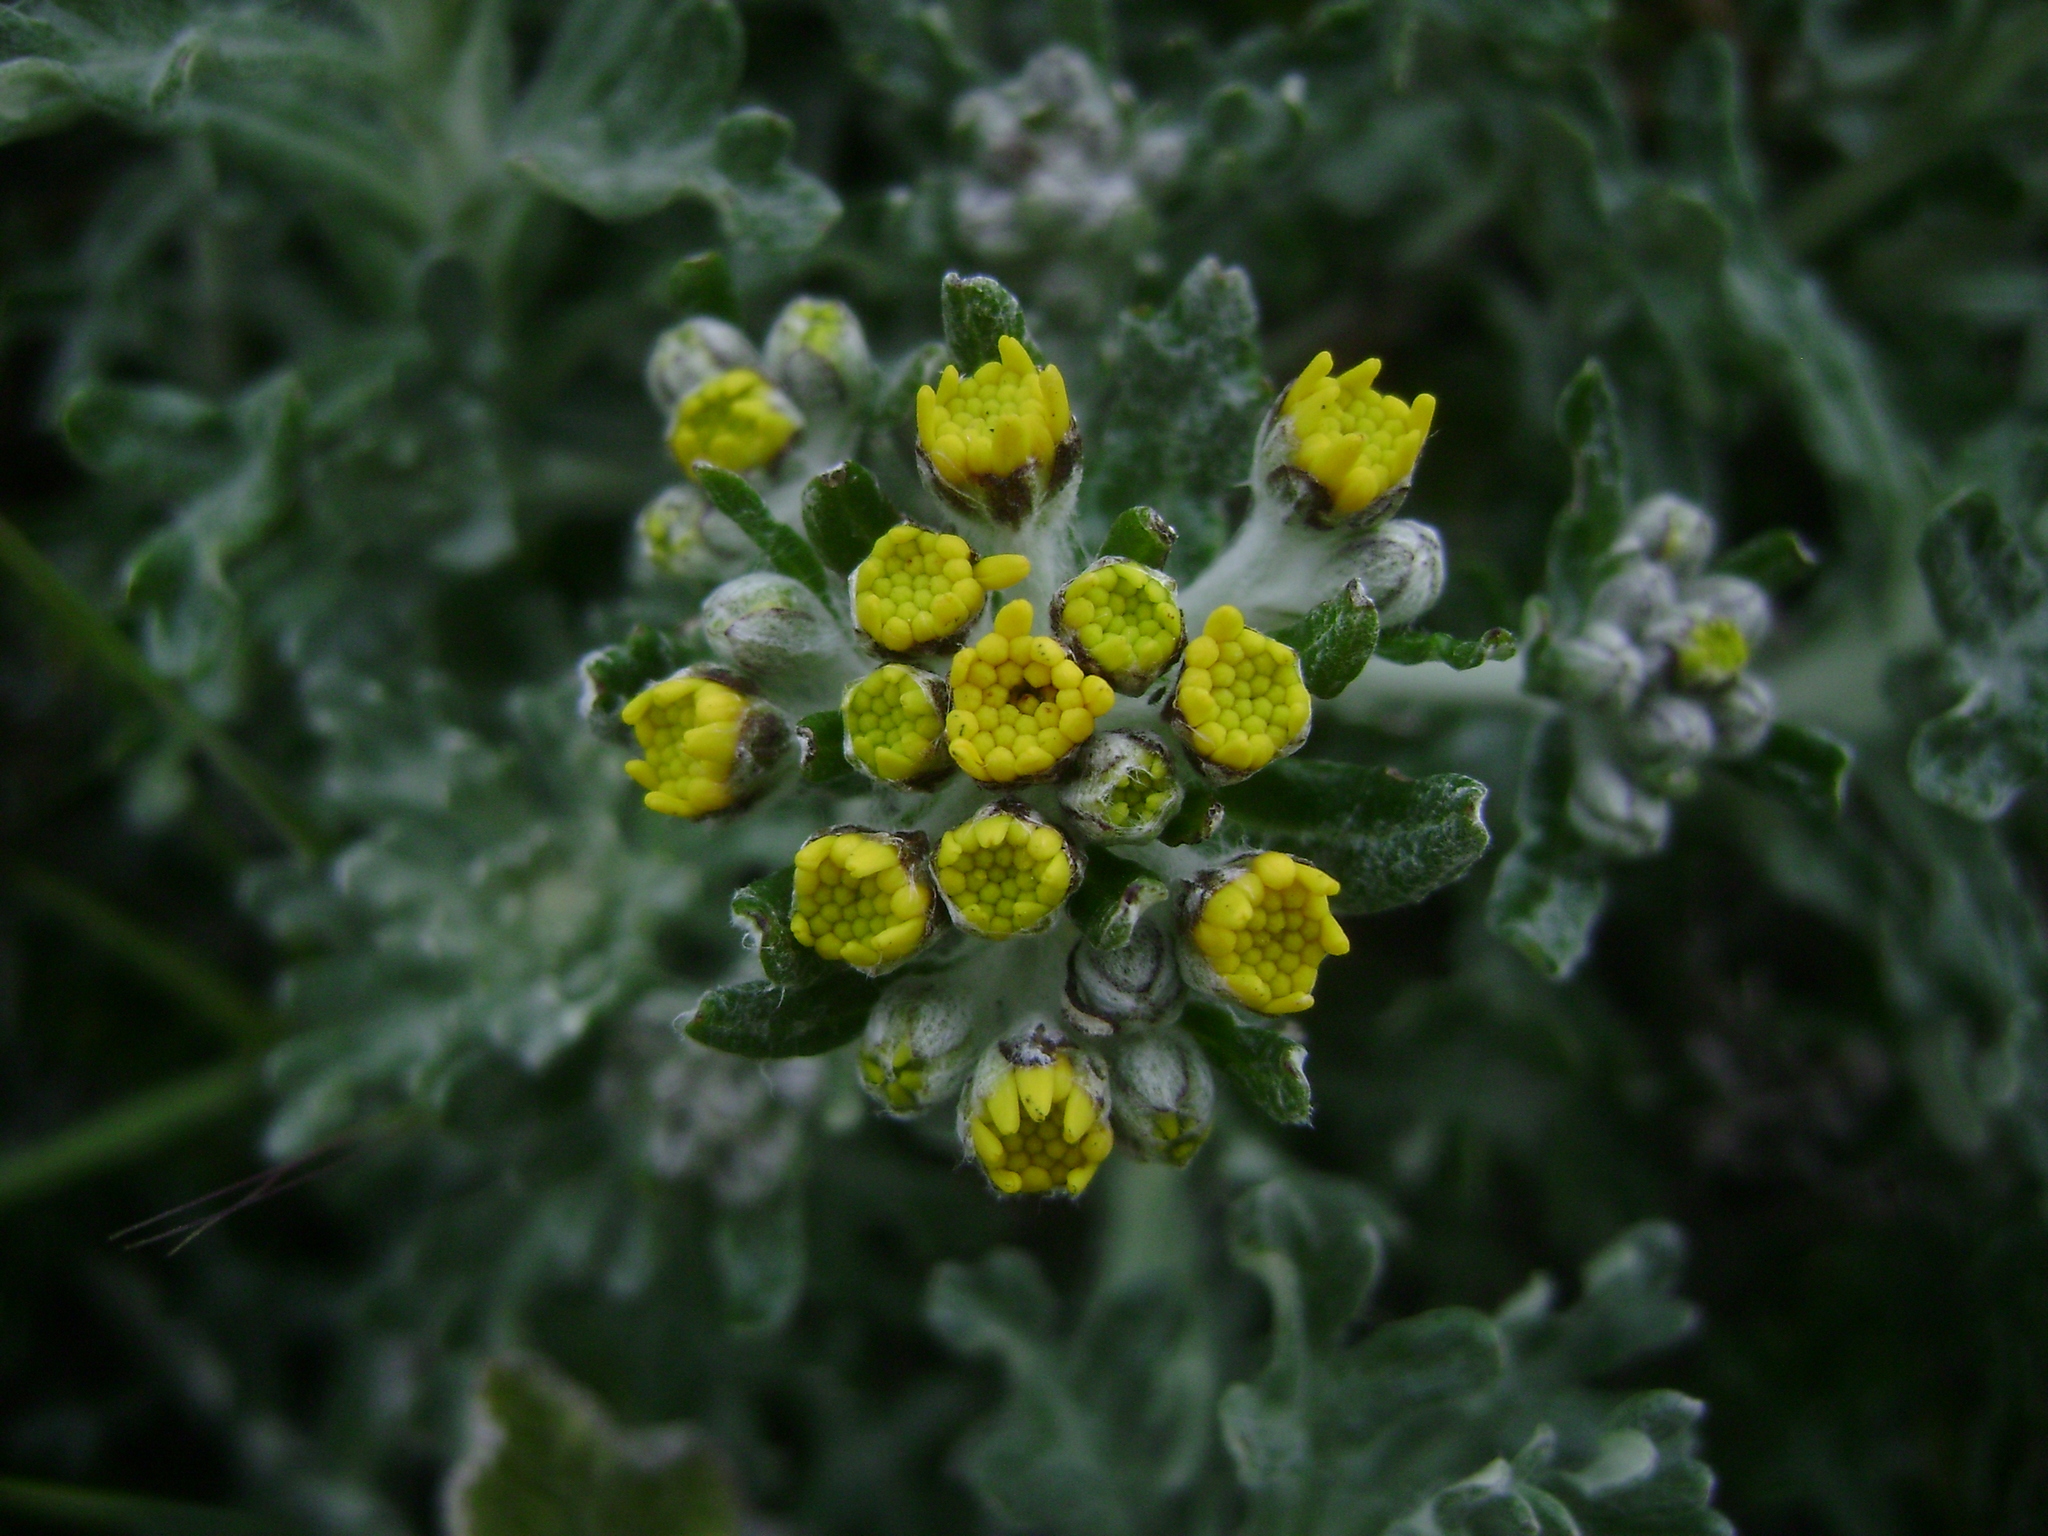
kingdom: Plantae
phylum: Tracheophyta
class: Magnoliopsida
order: Asterales
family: Asteraceae
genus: Eriophyllum
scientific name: Eriophyllum staechadifolium
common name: Lizardtail
